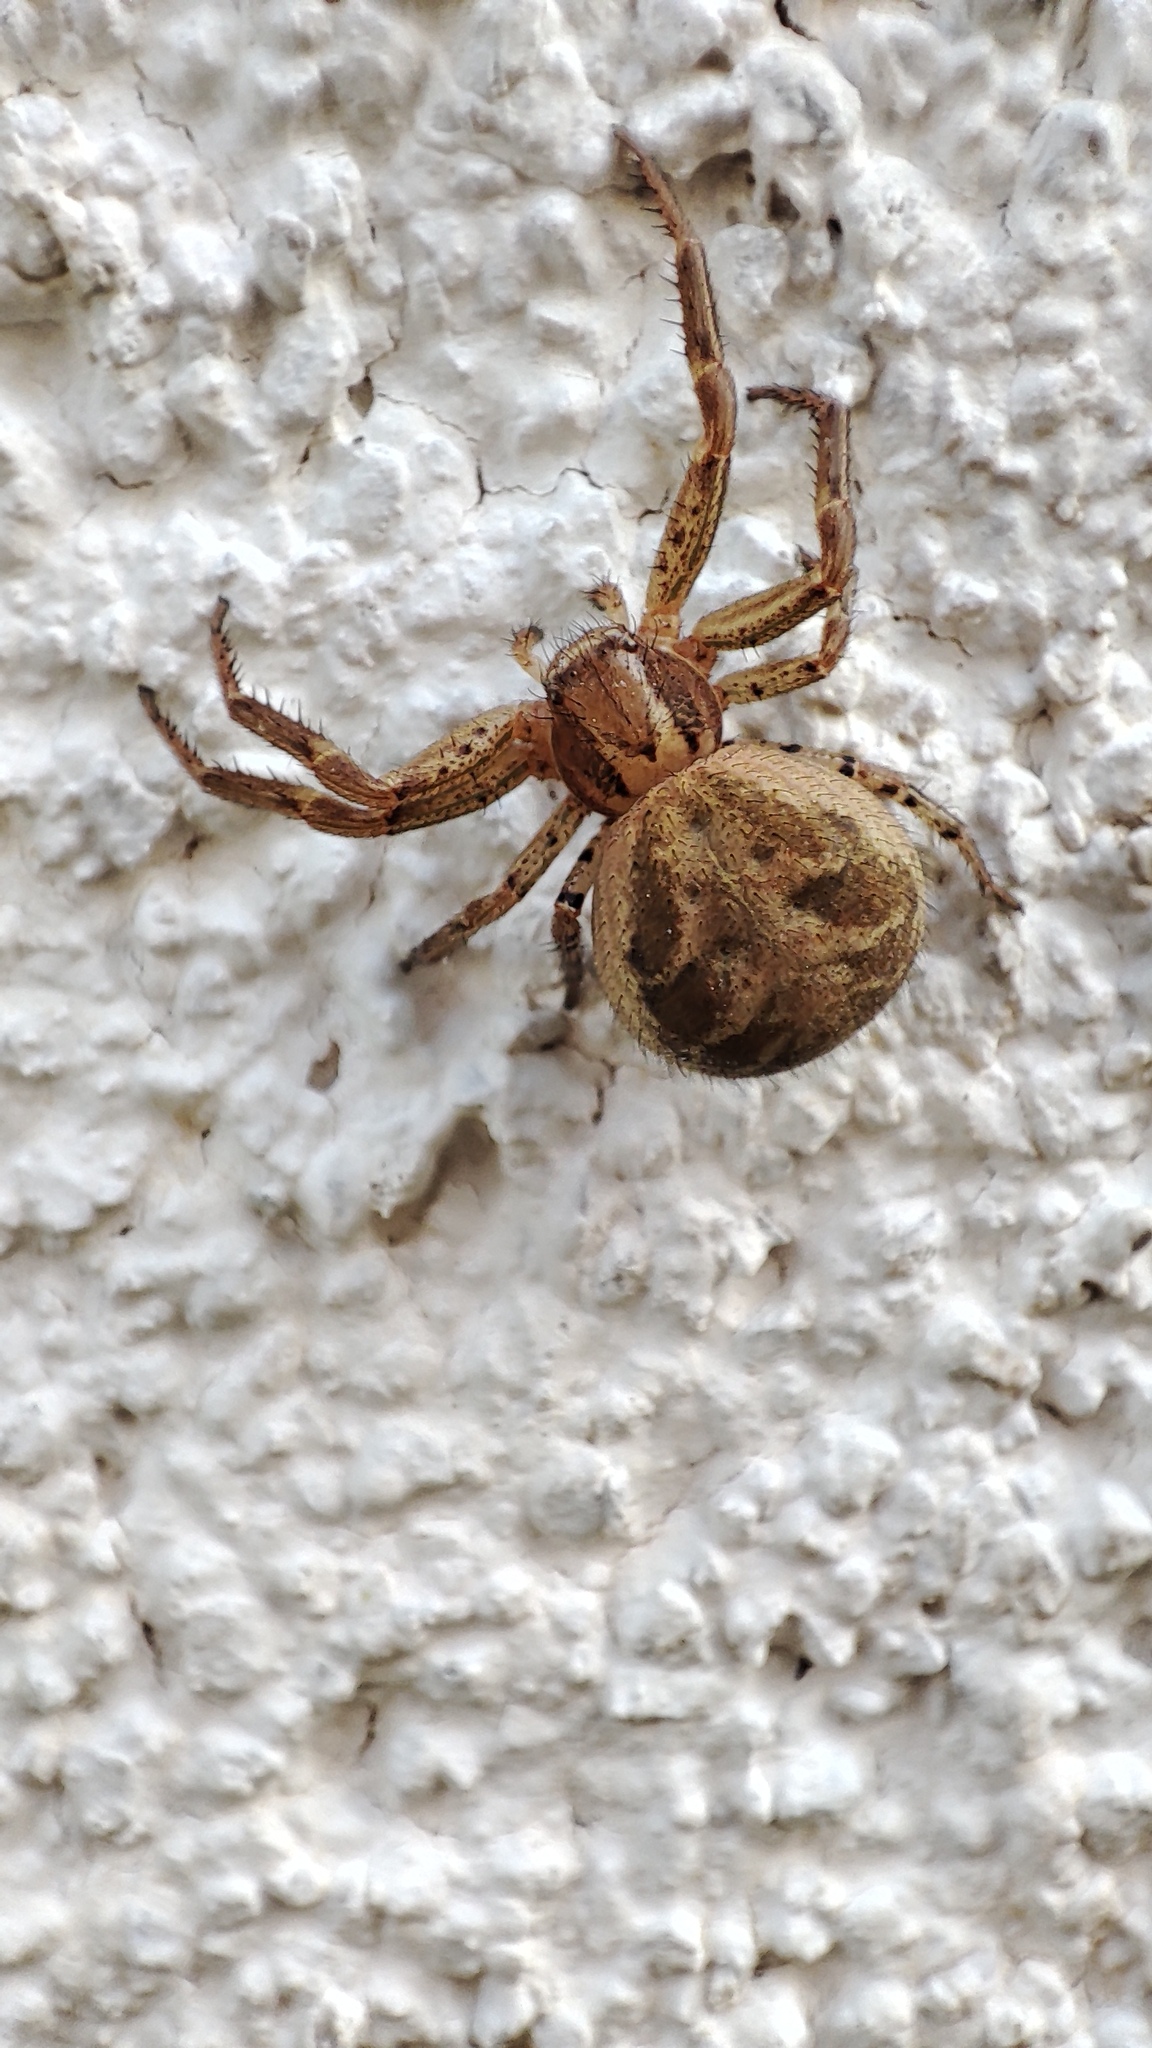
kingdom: Animalia
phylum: Arthropoda
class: Arachnida
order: Araneae
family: Thomisidae
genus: Xysticus
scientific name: Xysticus
